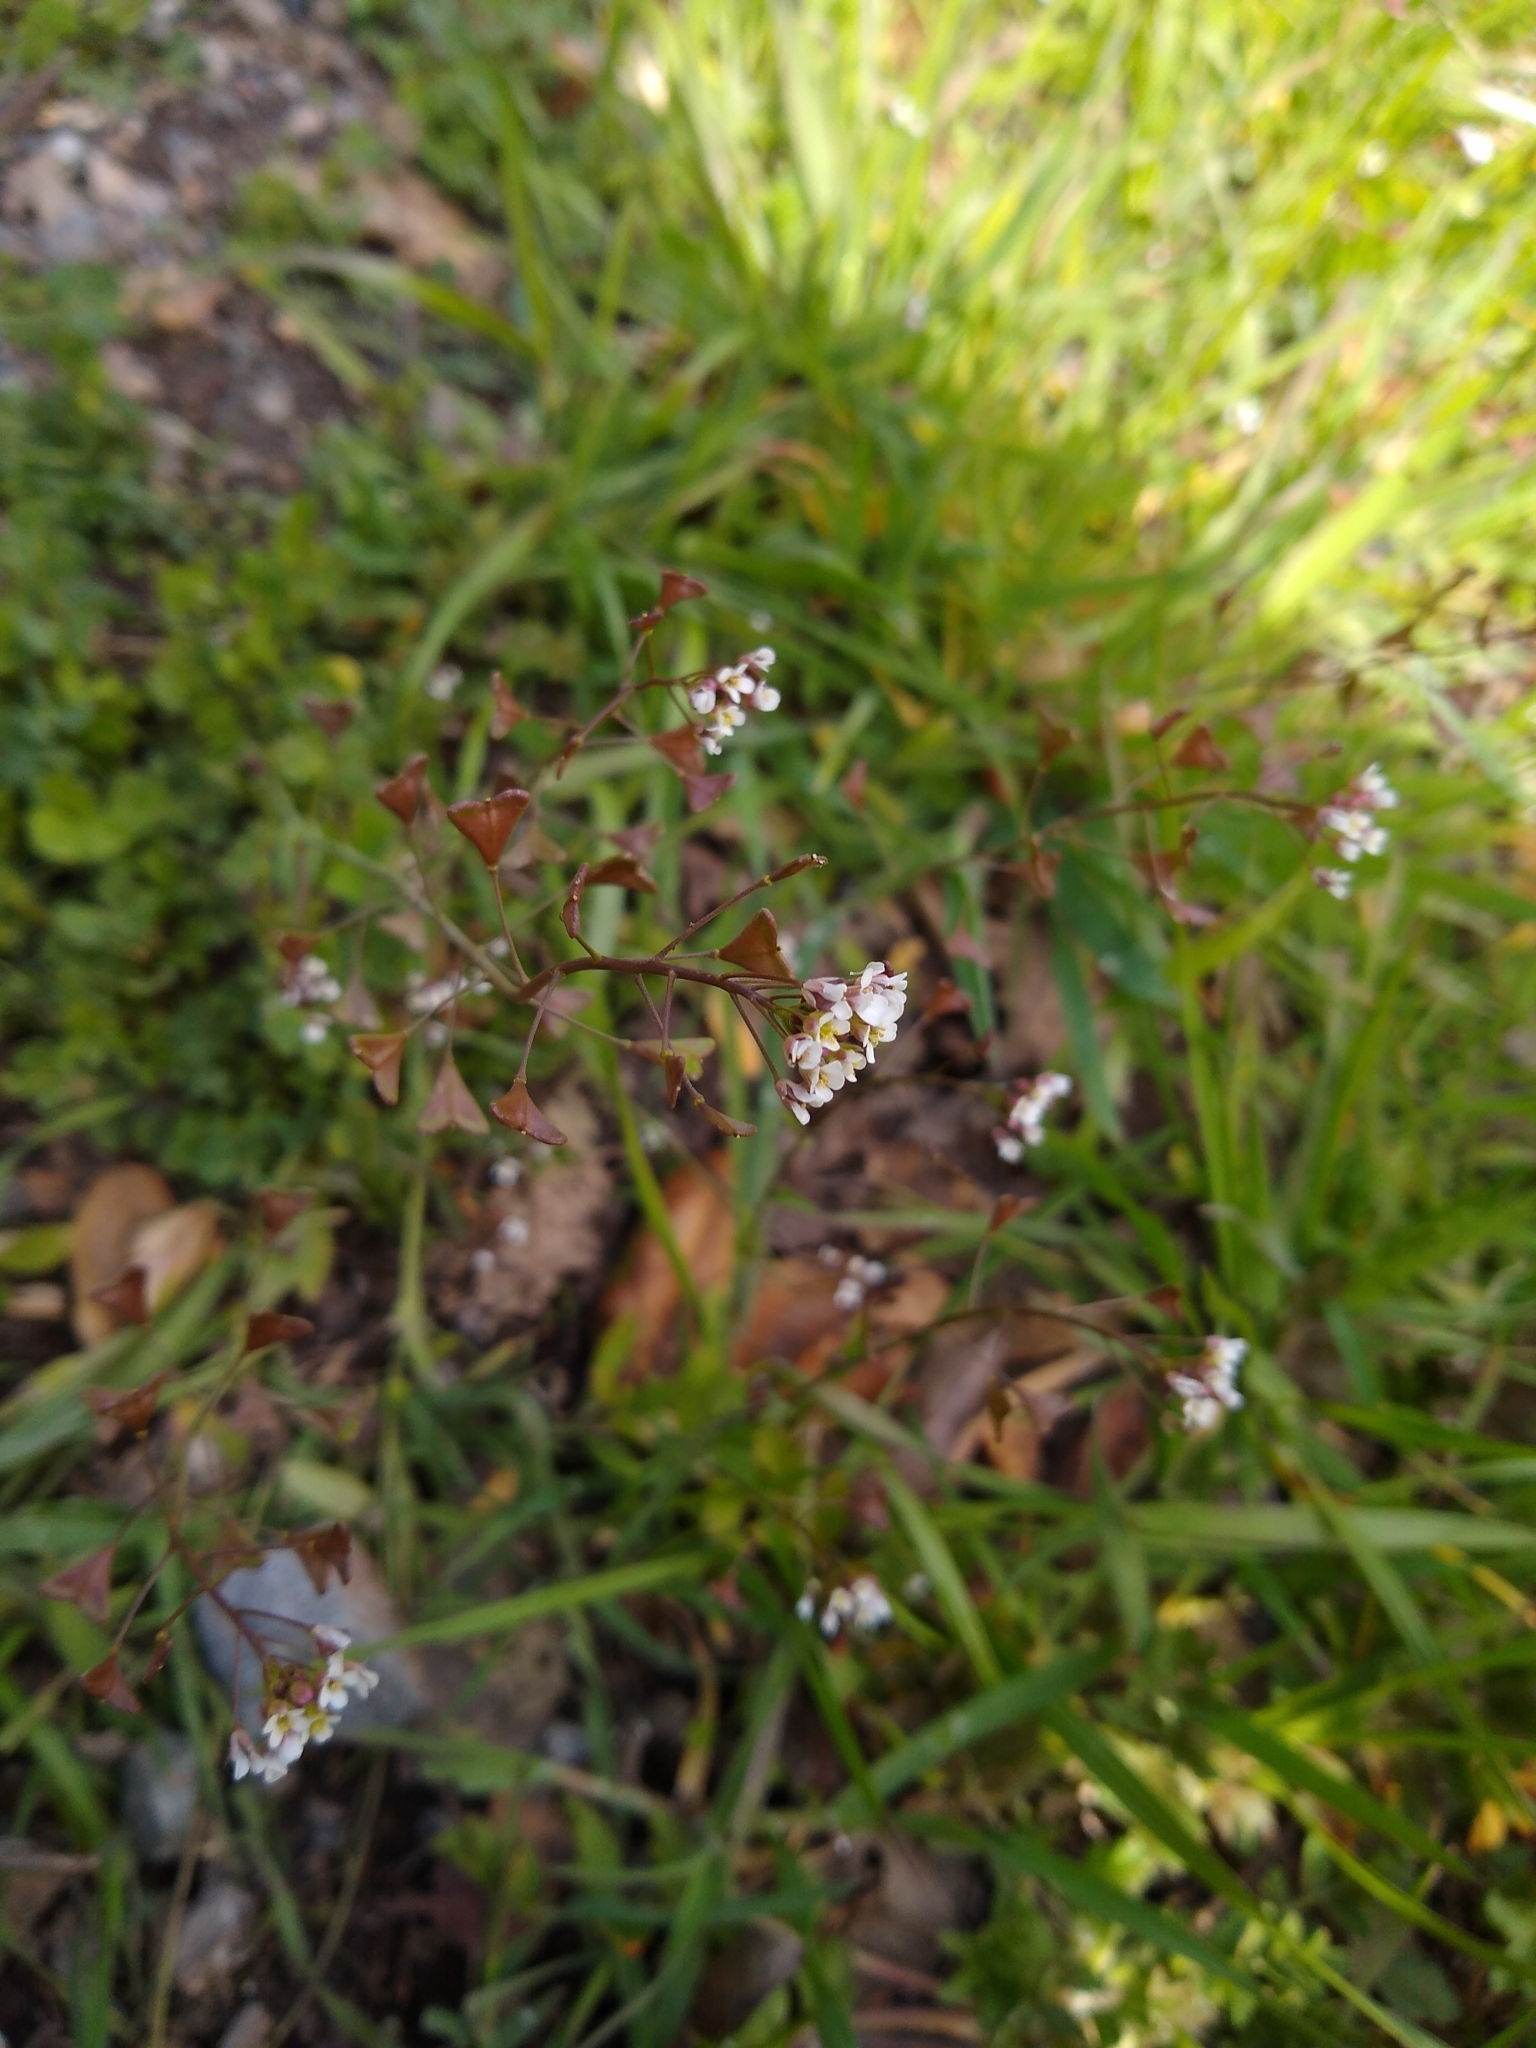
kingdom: Plantae
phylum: Tracheophyta
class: Magnoliopsida
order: Brassicales
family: Brassicaceae
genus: Capsella
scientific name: Capsella bursa-pastoris
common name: Shepherd's purse
